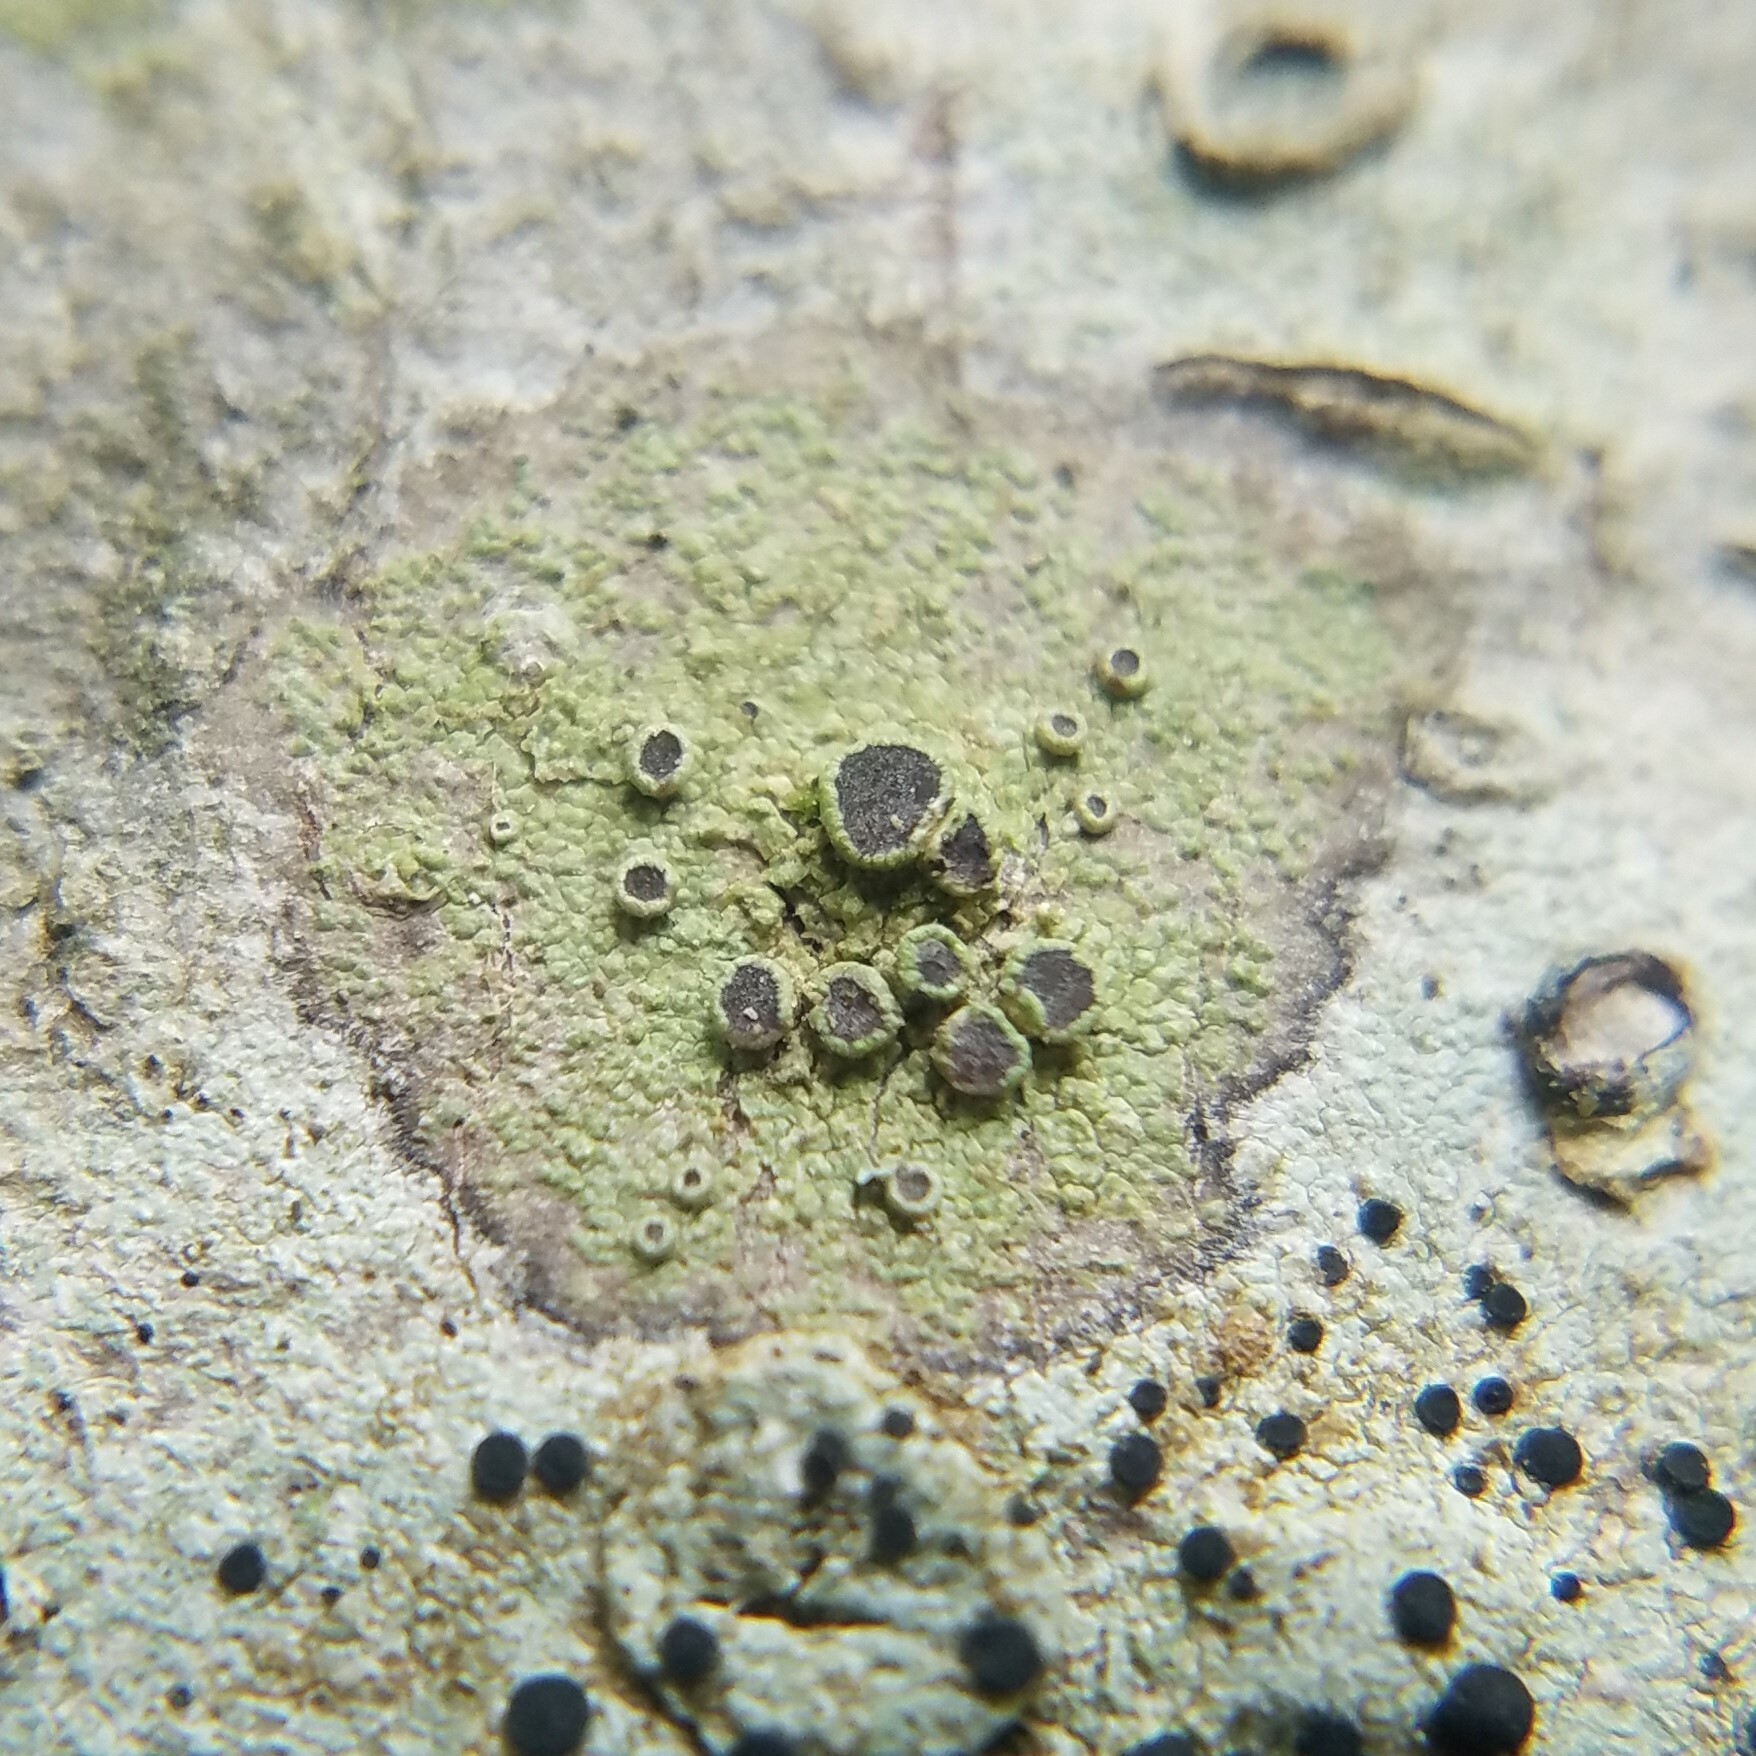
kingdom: Fungi
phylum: Ascomycota
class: Lecanoromycetes
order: Umbilicariales
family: Fuscideaceae
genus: Maronea
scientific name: Maronea polyphaea
